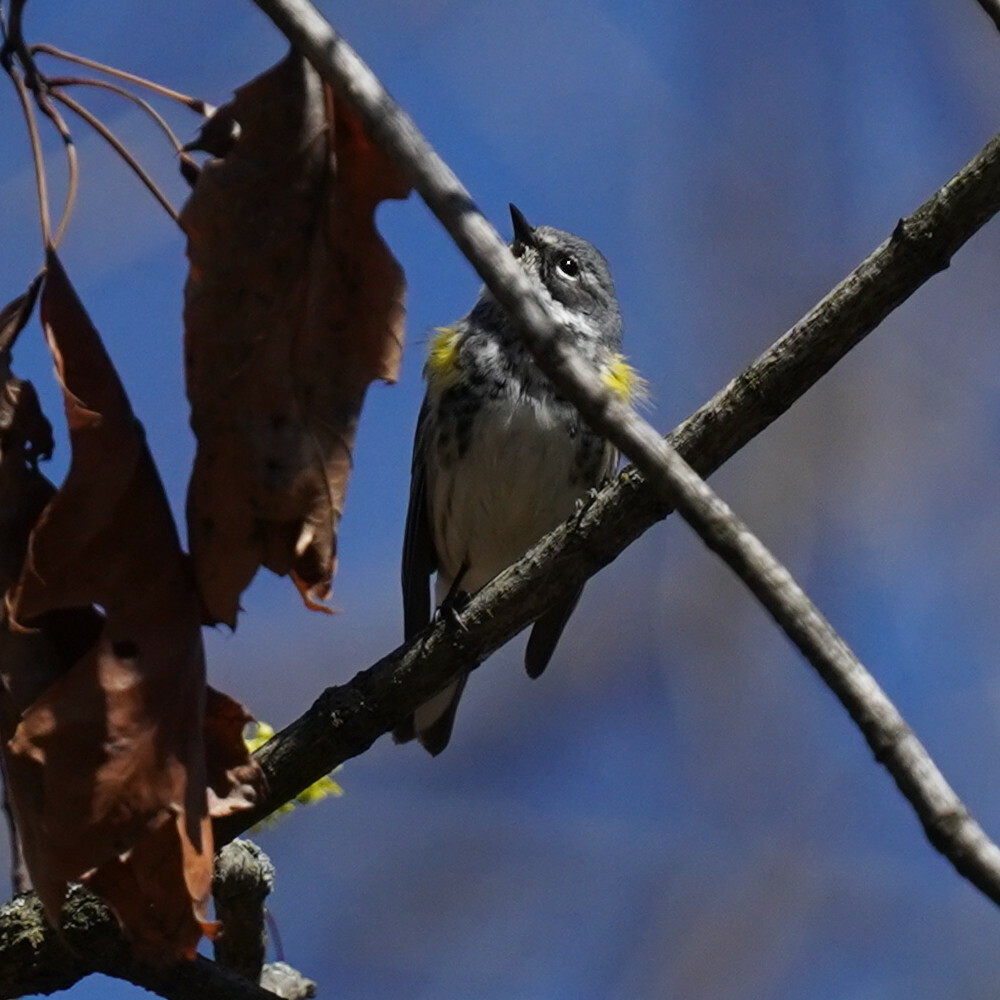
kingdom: Animalia
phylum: Chordata
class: Aves
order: Passeriformes
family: Parulidae
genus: Setophaga
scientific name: Setophaga coronata
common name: Myrtle warbler
